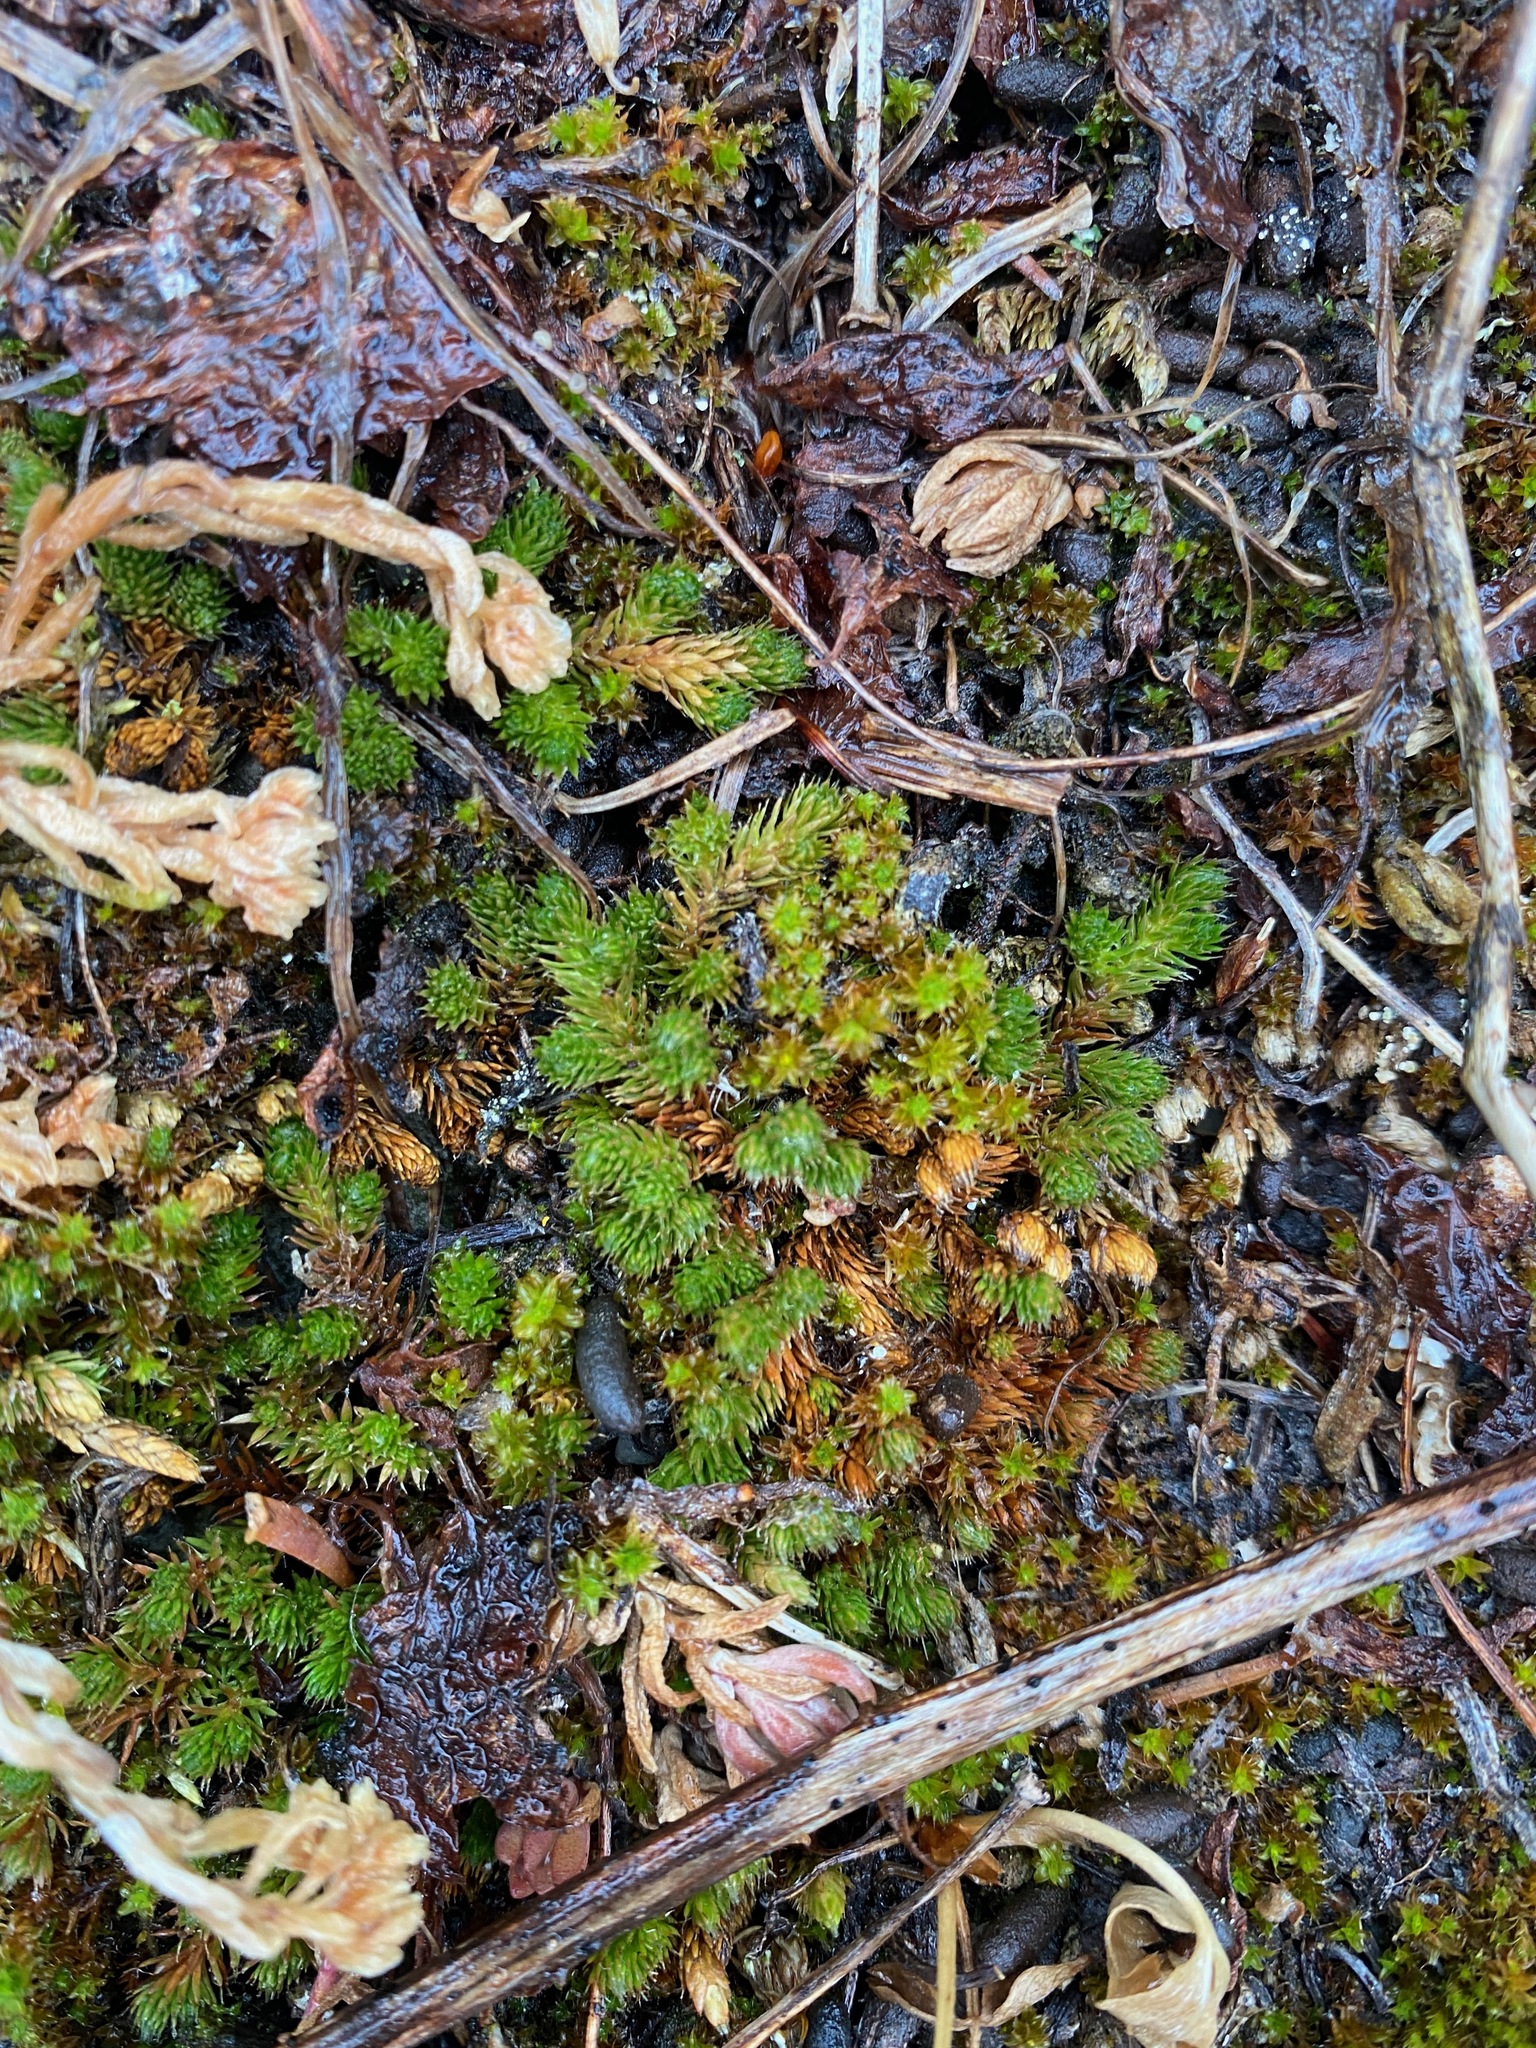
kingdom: Plantae
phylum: Tracheophyta
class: Lycopodiopsida
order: Selaginellales
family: Selaginellaceae
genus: Selaginella
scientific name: Selaginella densa
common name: Mountain spike-moss
